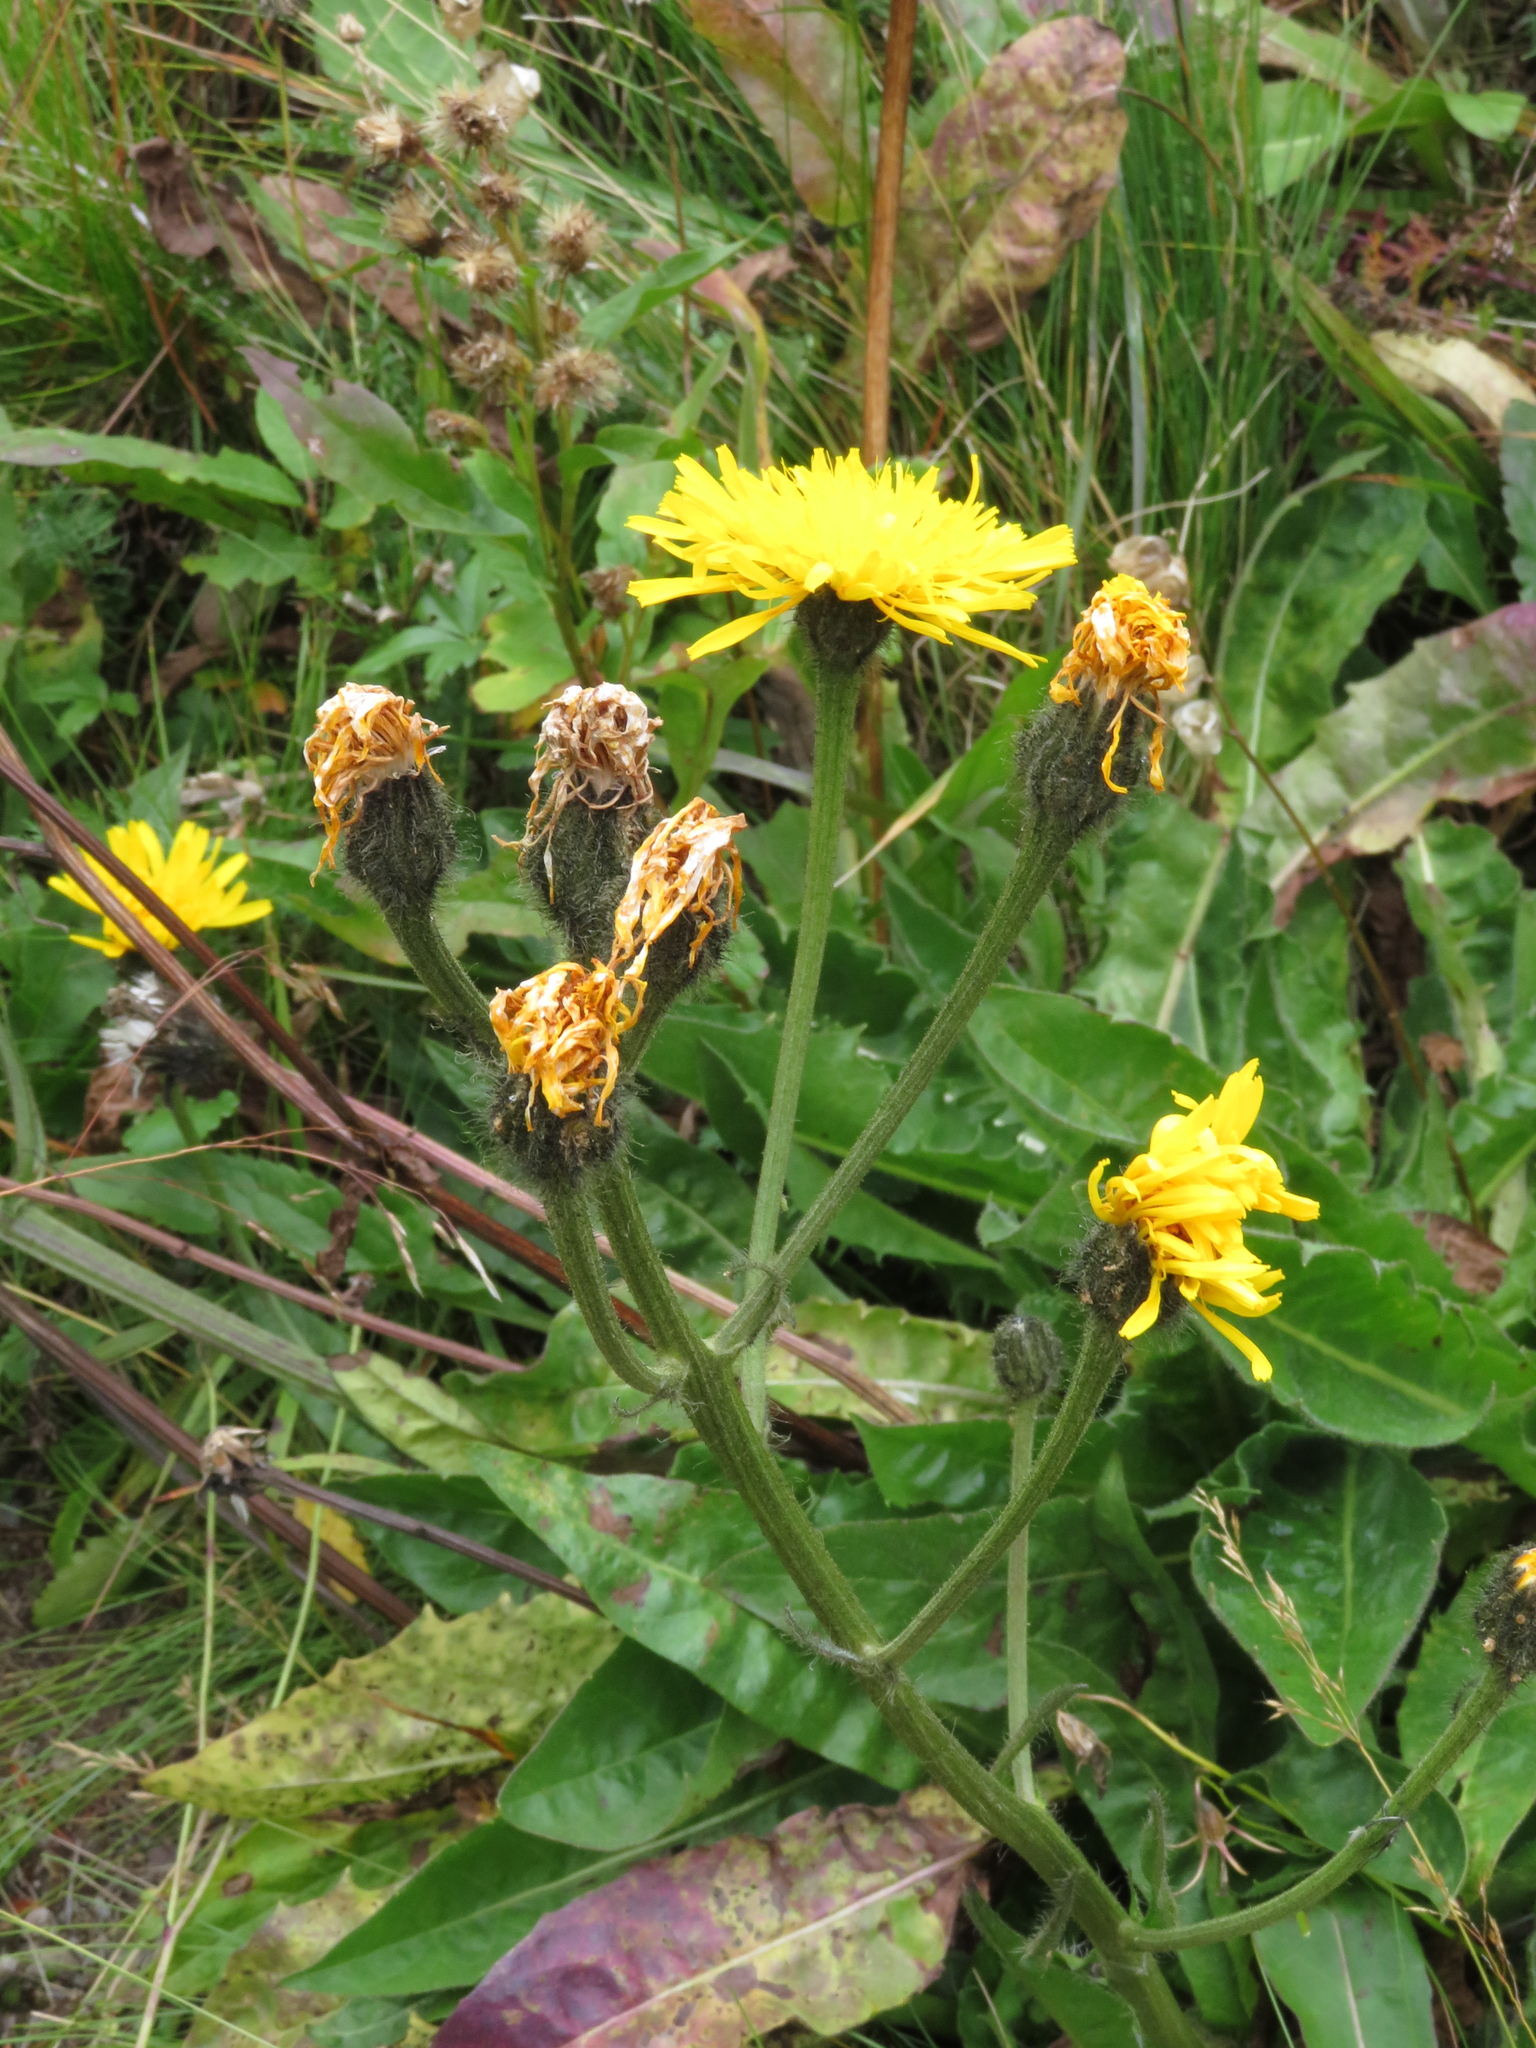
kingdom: Plantae
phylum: Tracheophyta
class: Magnoliopsida
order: Asterales
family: Asteraceae
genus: Crepis
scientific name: Crepis conyzifolia
